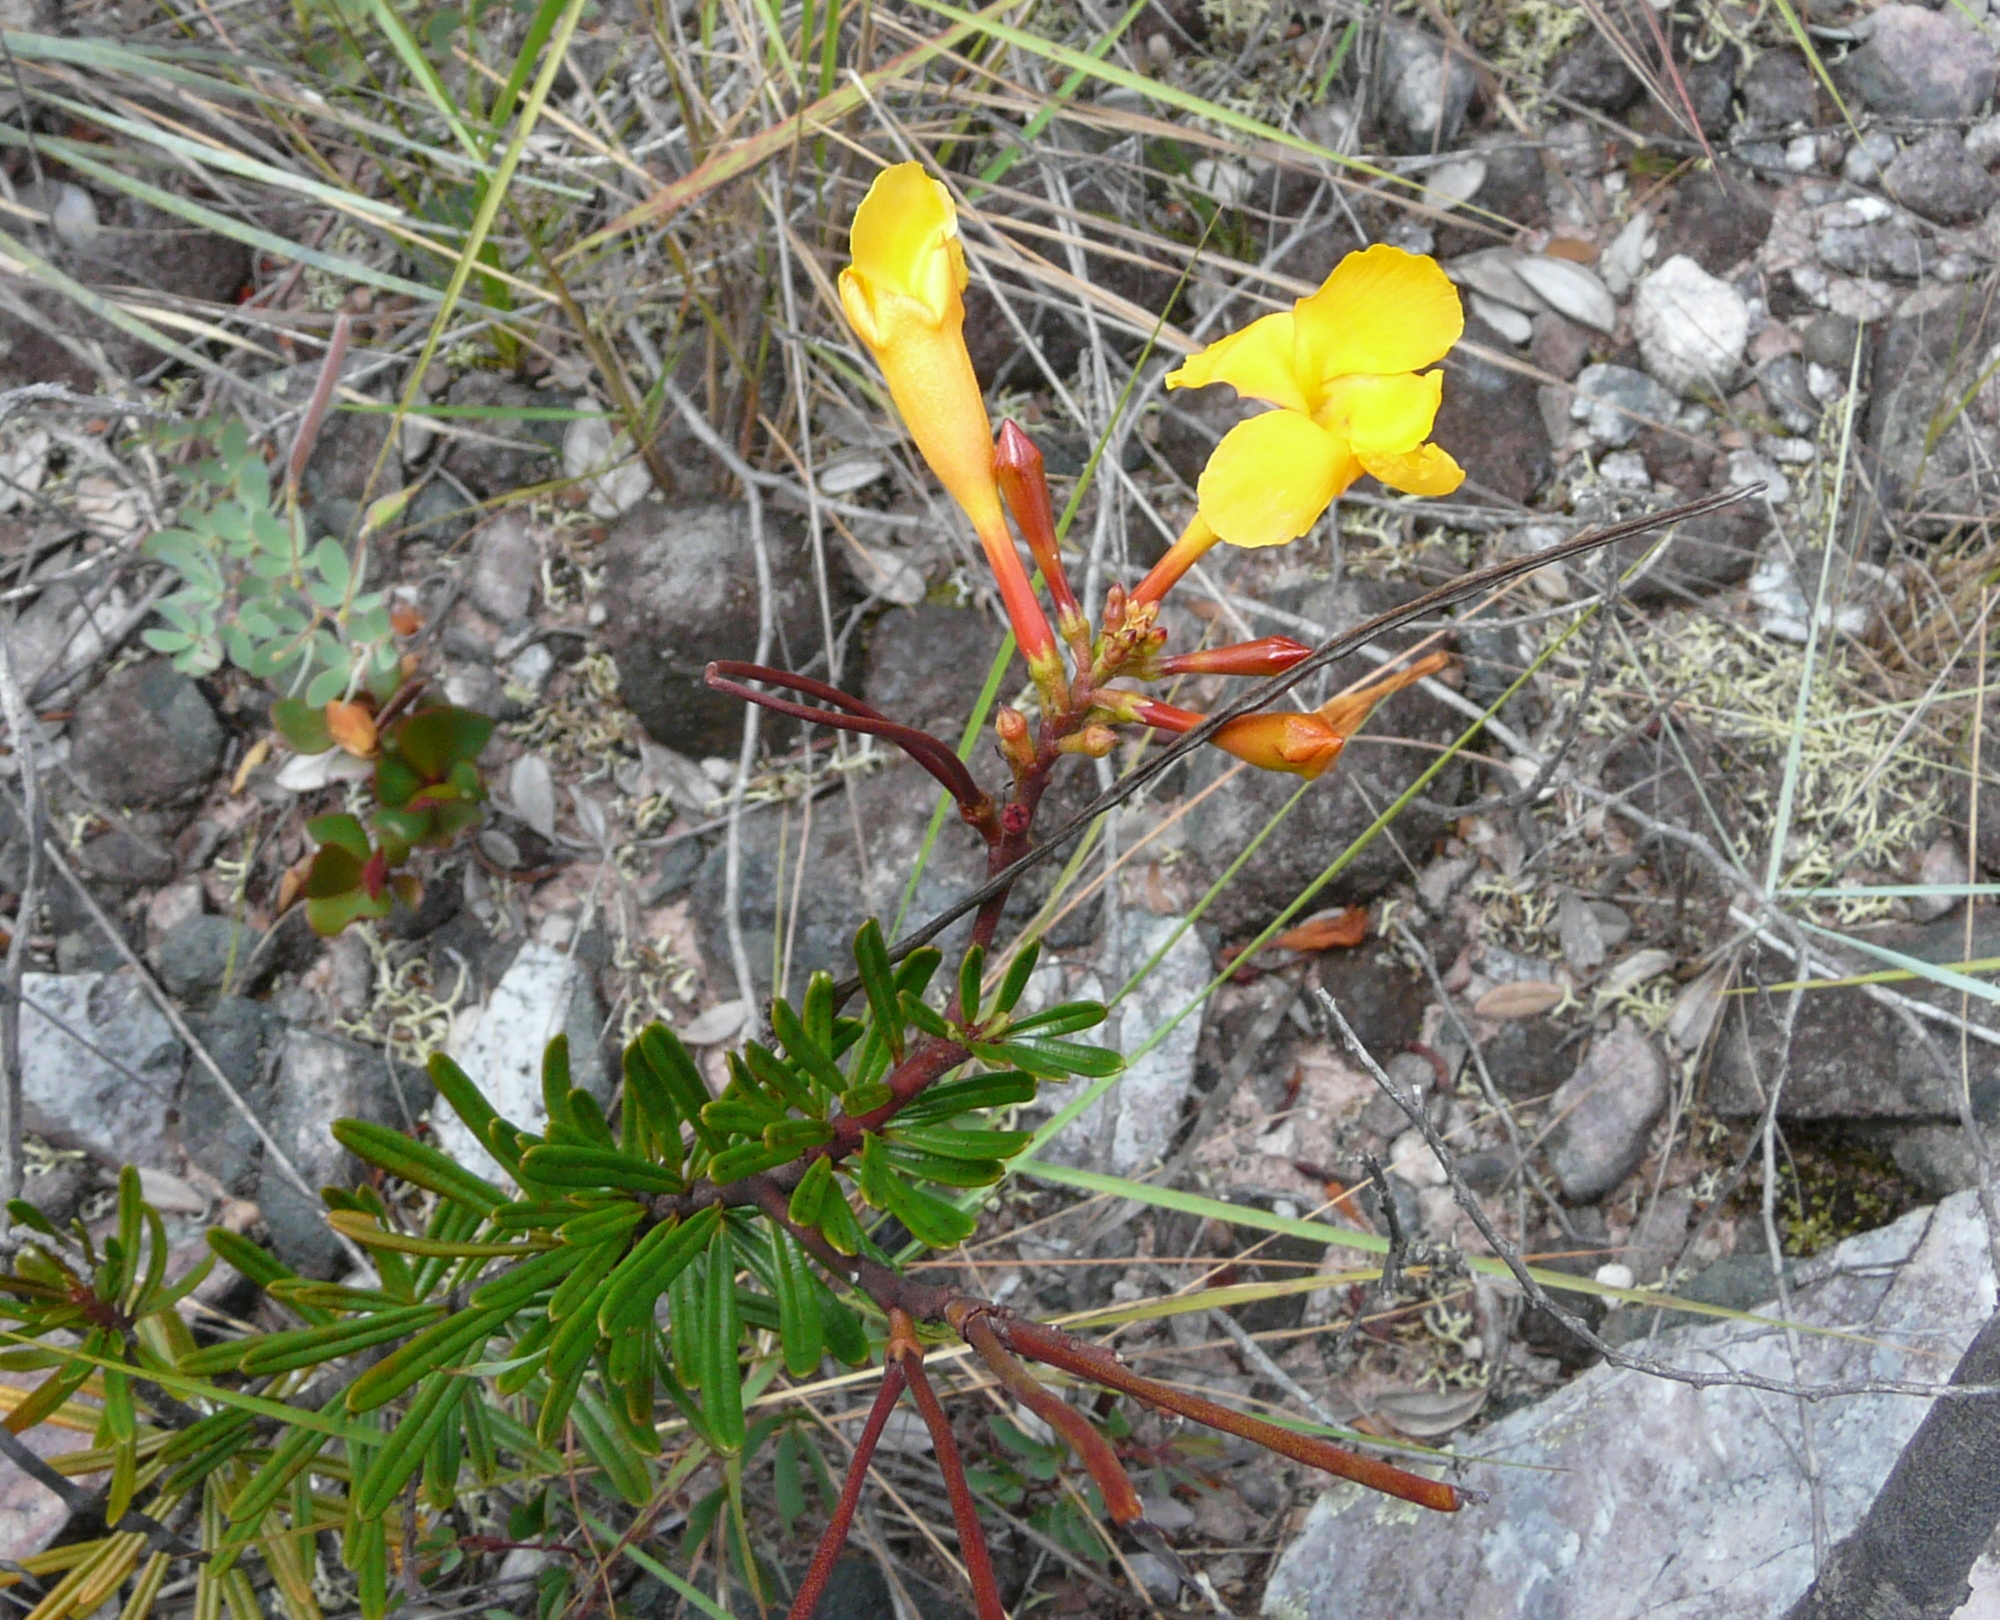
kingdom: Plantae
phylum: Tracheophyta
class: Magnoliopsida
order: Gentianales
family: Apocynaceae
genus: Mandevilla
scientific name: Mandevilla benthamii
